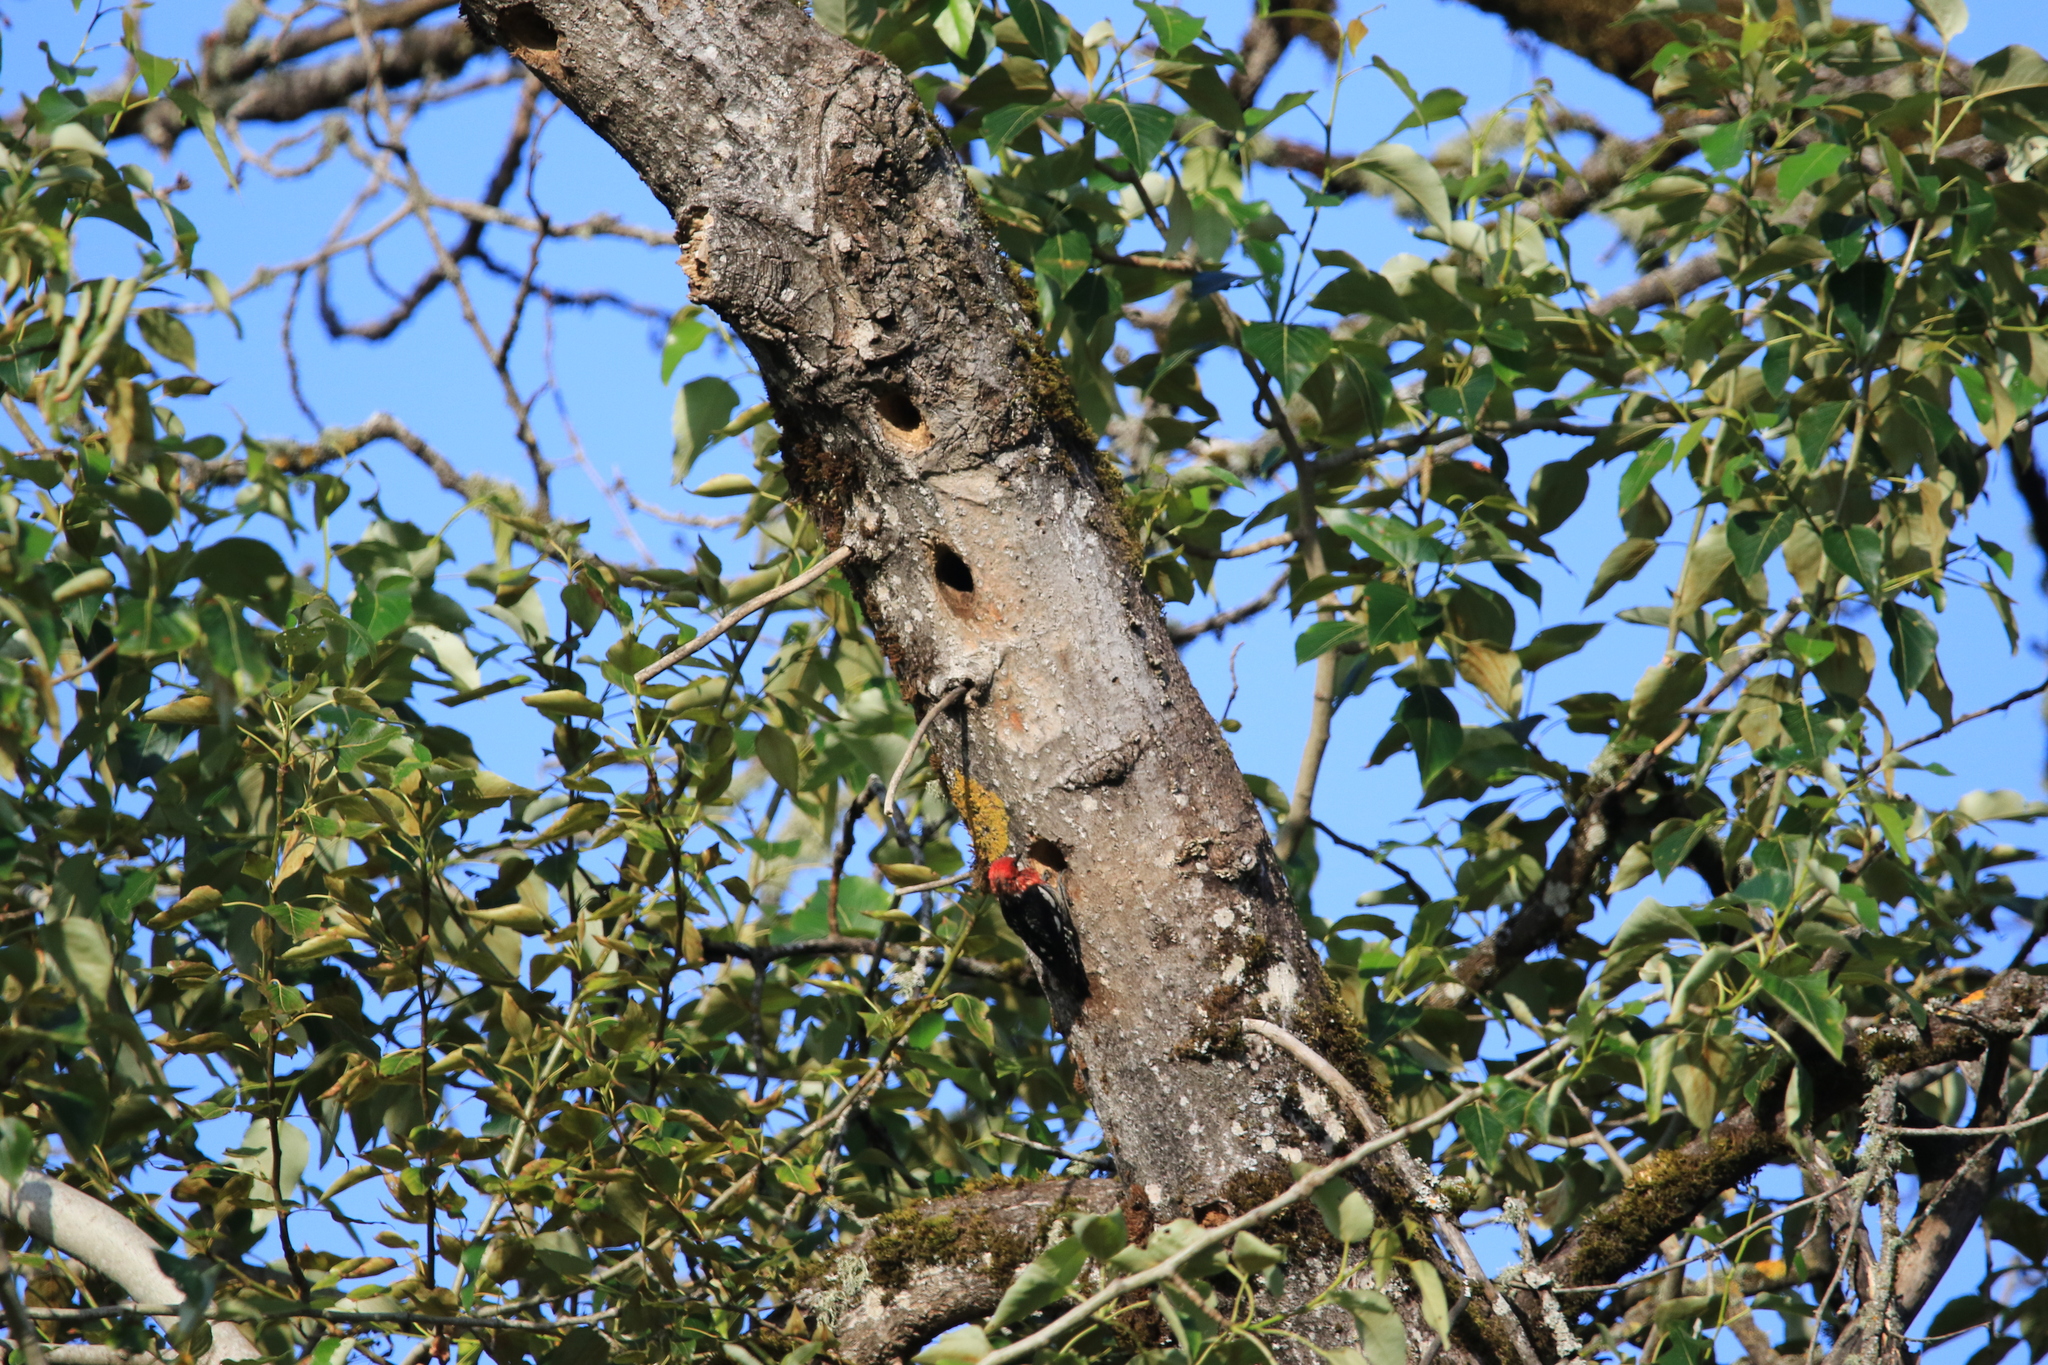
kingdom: Animalia
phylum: Chordata
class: Aves
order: Piciformes
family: Picidae
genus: Sphyrapicus
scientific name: Sphyrapicus ruber
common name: Red-breasted sapsucker
